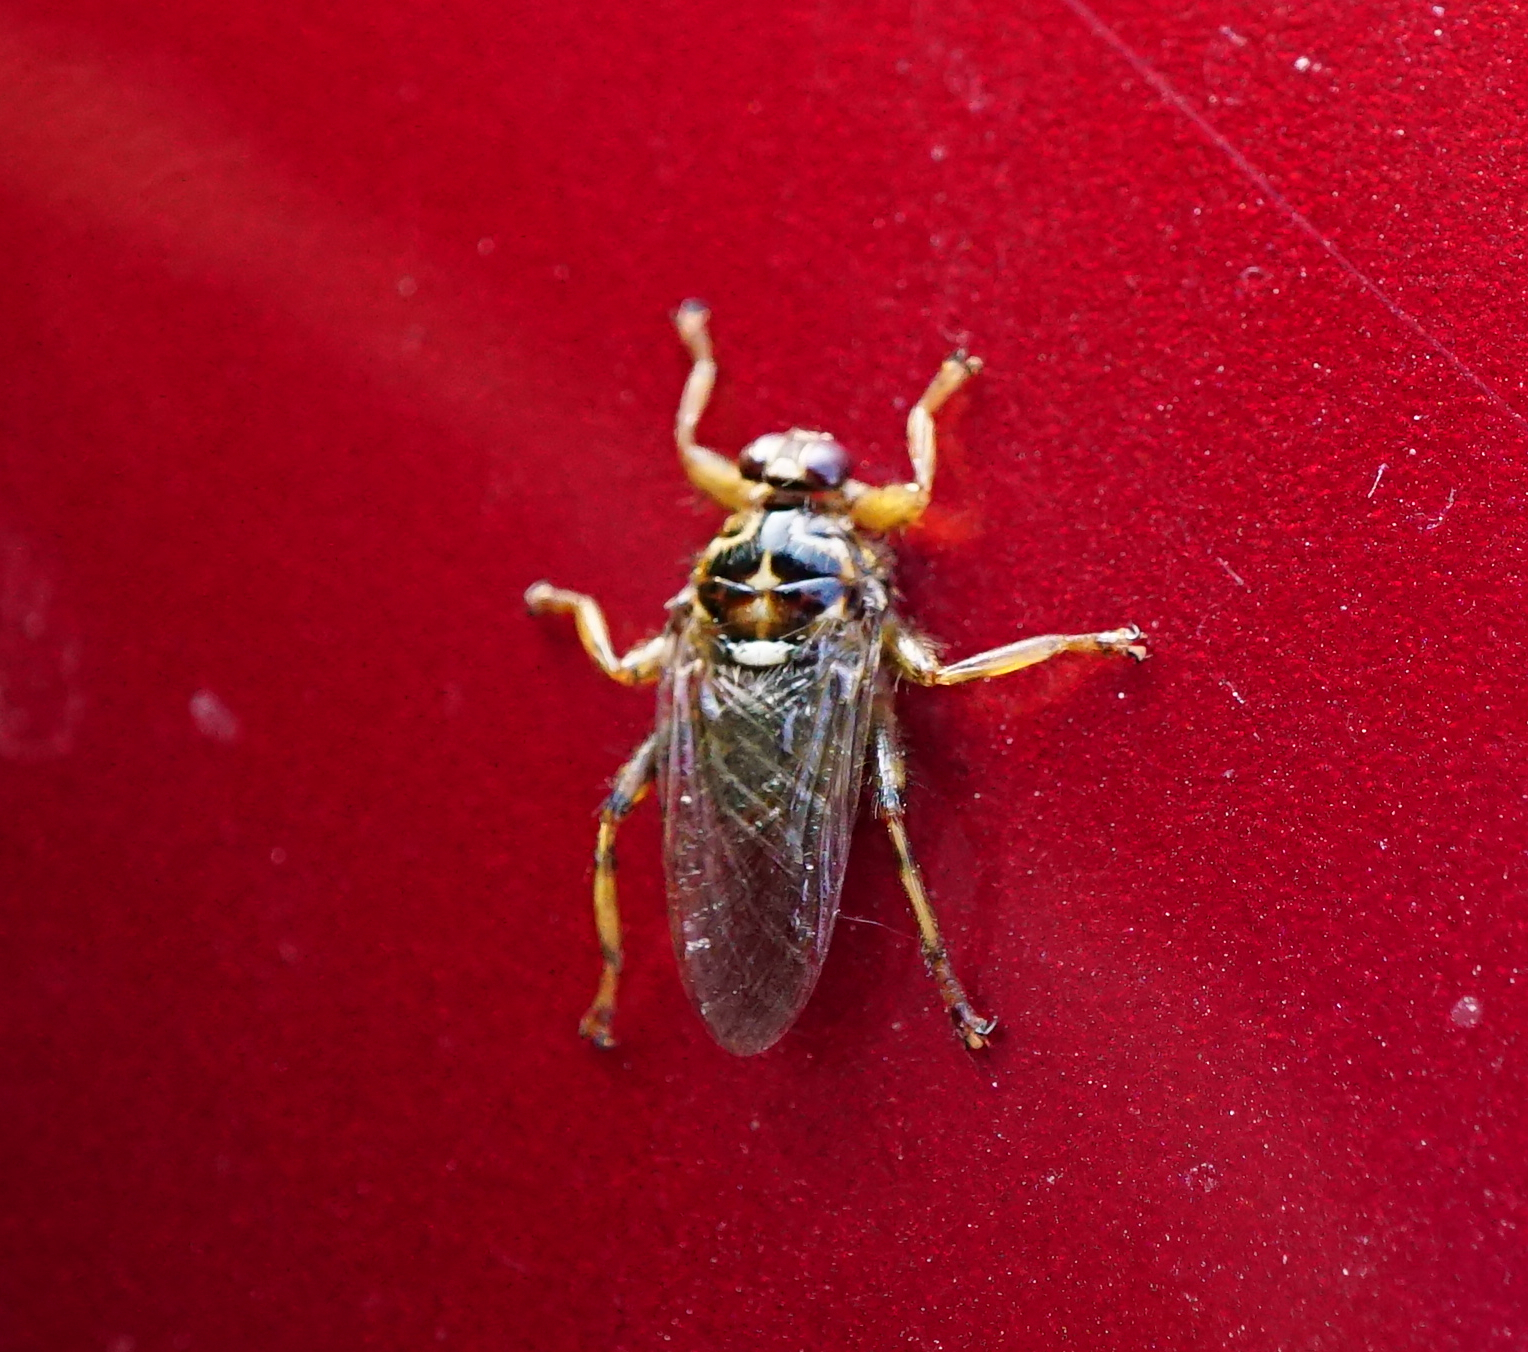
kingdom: Animalia
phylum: Arthropoda
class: Insecta
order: Diptera
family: Hippoboscidae
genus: Hippobosca
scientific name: Hippobosca equina
